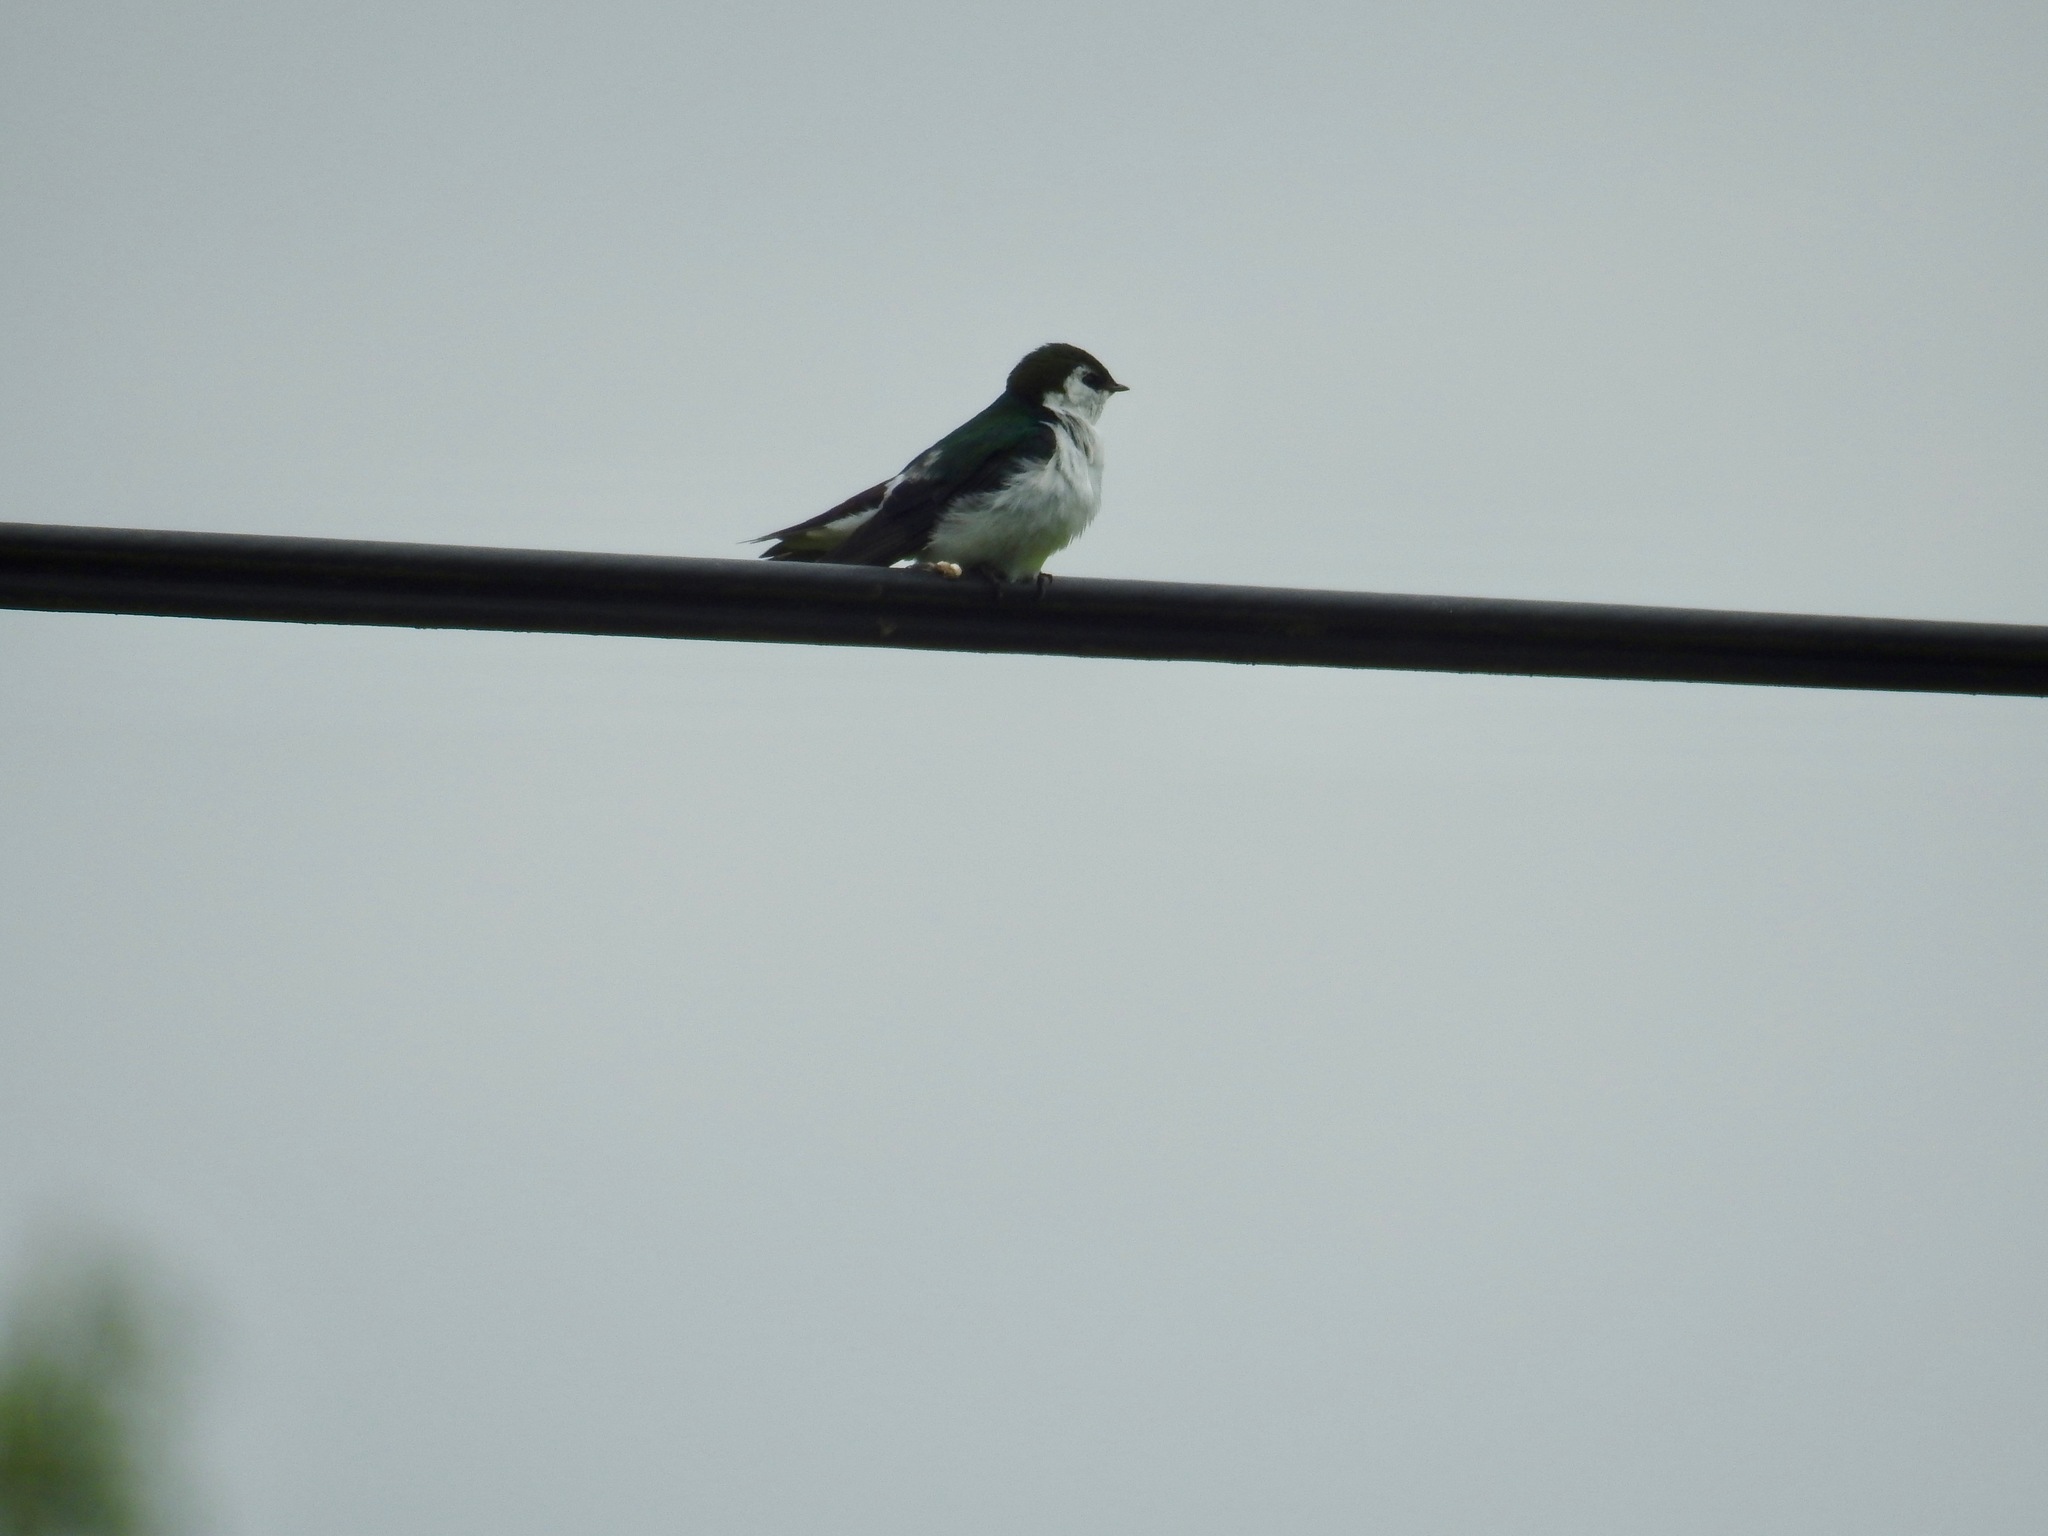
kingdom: Animalia
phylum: Chordata
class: Aves
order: Passeriformes
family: Hirundinidae
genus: Tachycineta
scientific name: Tachycineta thalassina
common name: Violet-green swallow
